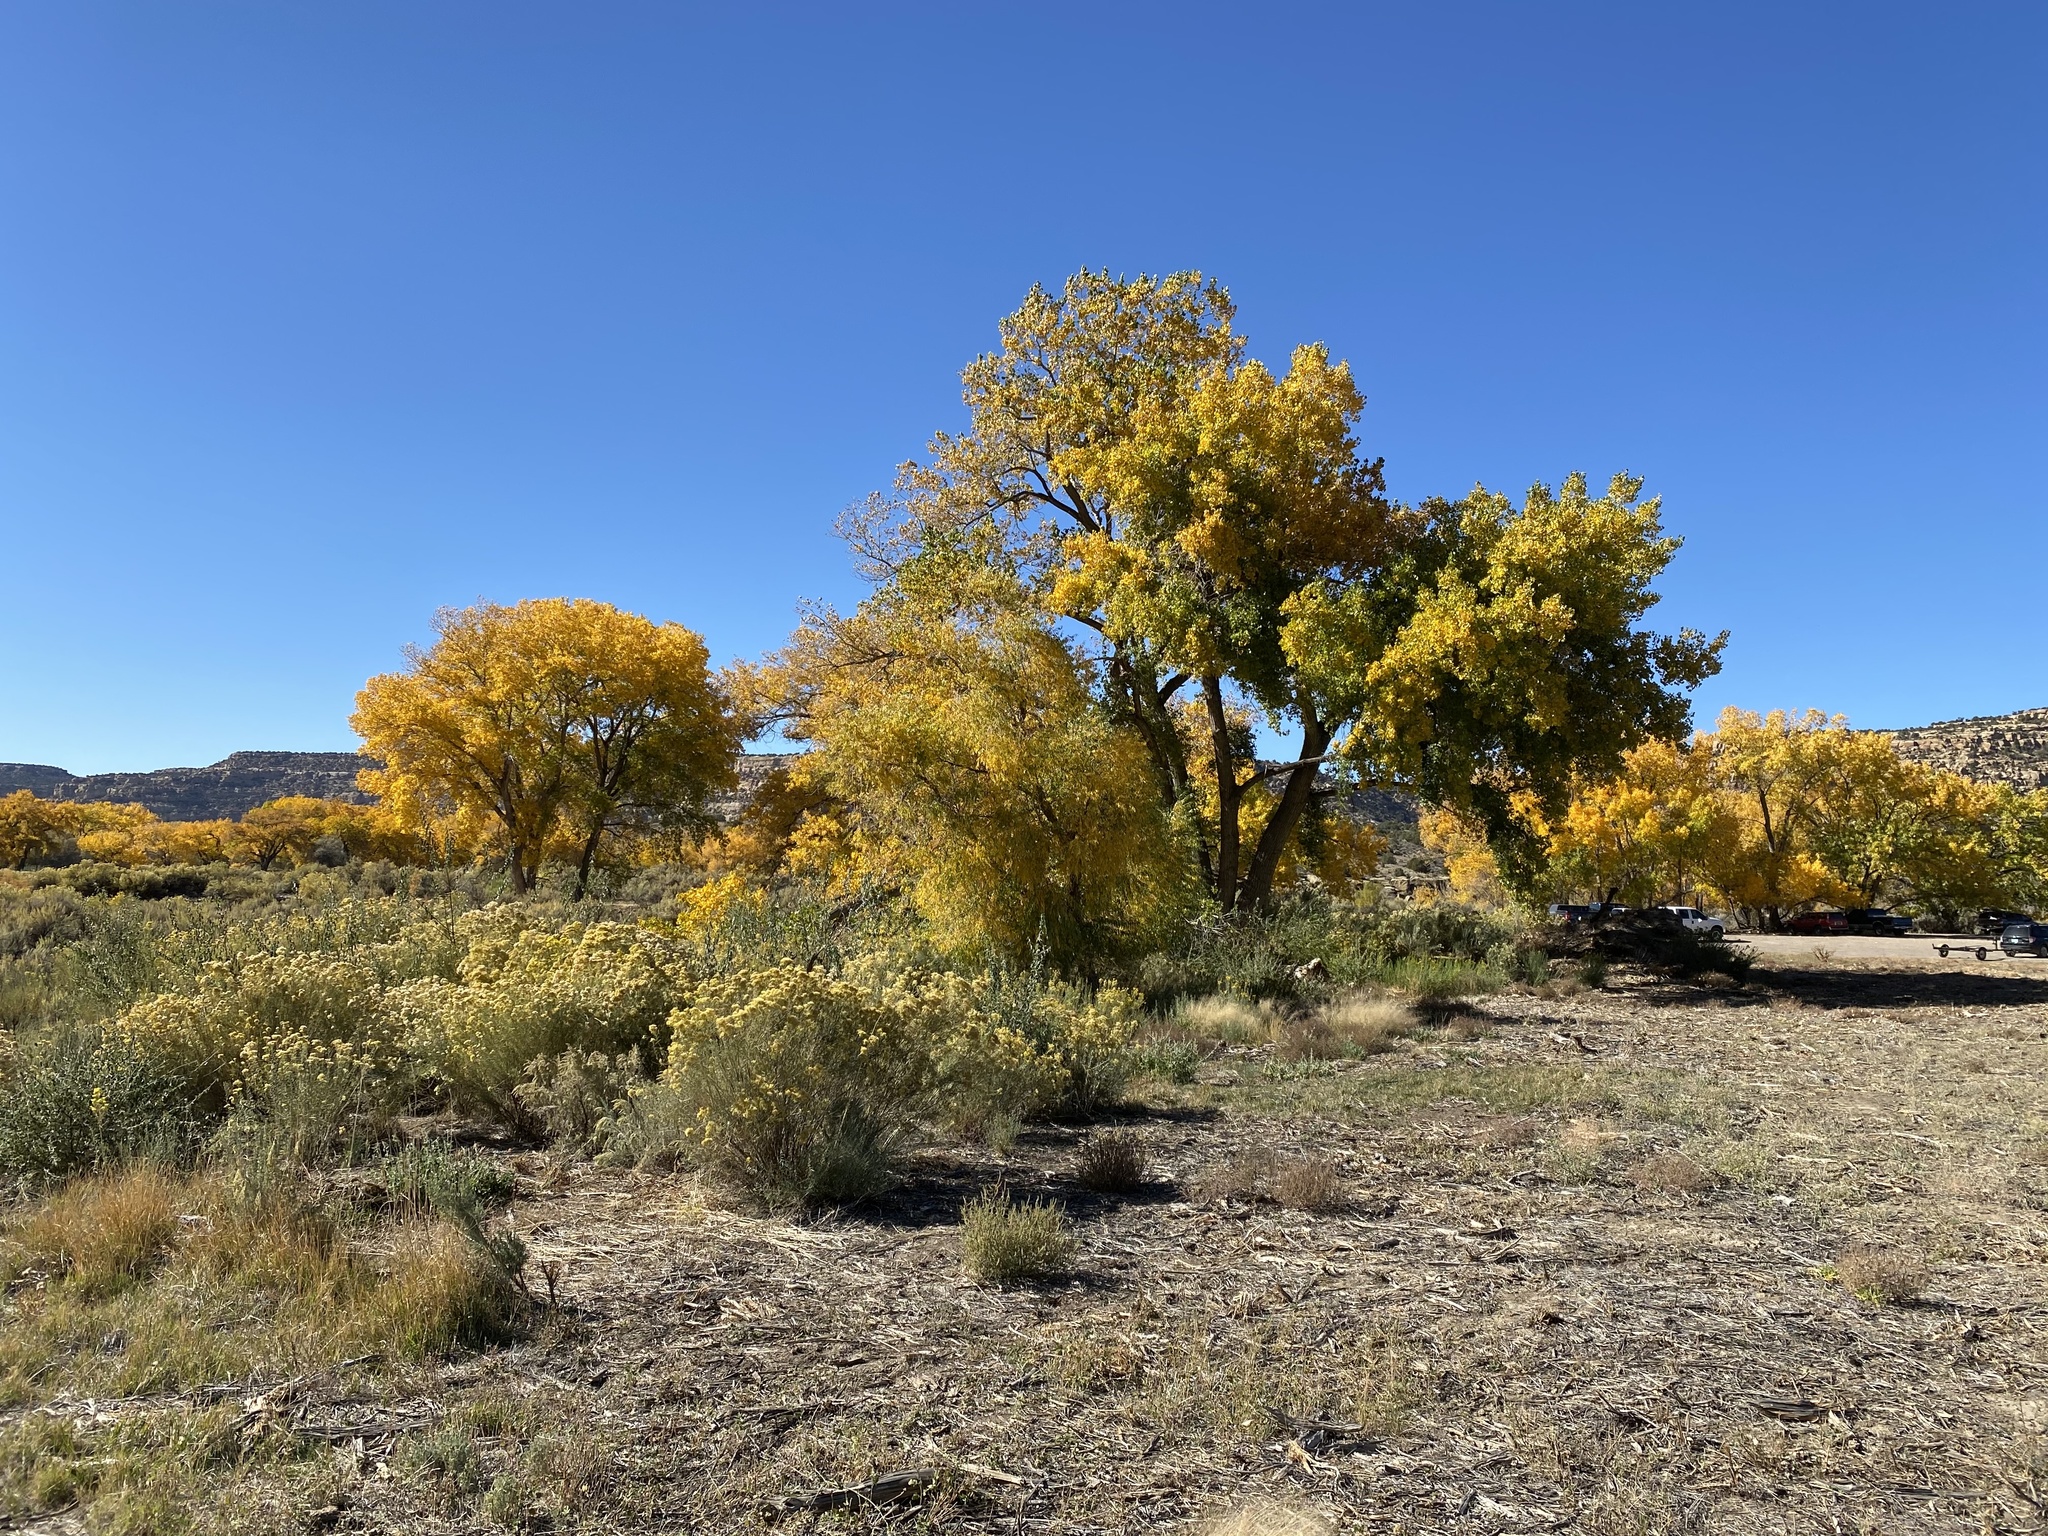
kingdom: Plantae
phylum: Tracheophyta
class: Magnoliopsida
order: Malpighiales
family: Salicaceae
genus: Populus
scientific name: Populus fremontii
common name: Fremont's cottonwood
